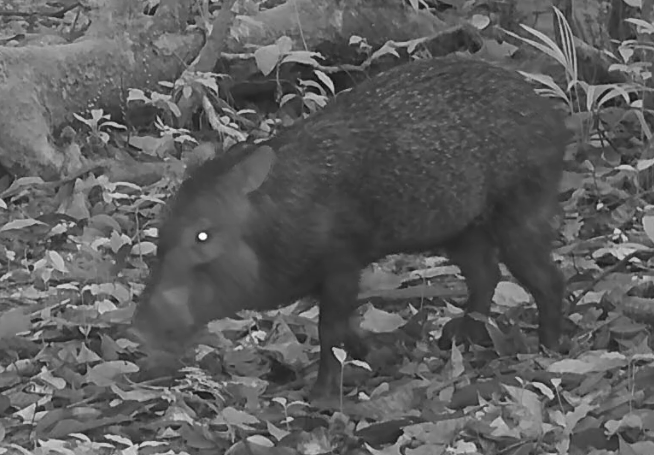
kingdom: Animalia
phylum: Chordata
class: Mammalia
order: Artiodactyla
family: Tayassuidae
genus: Tayassu
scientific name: Tayassu pecari
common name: White-lipped peccary
